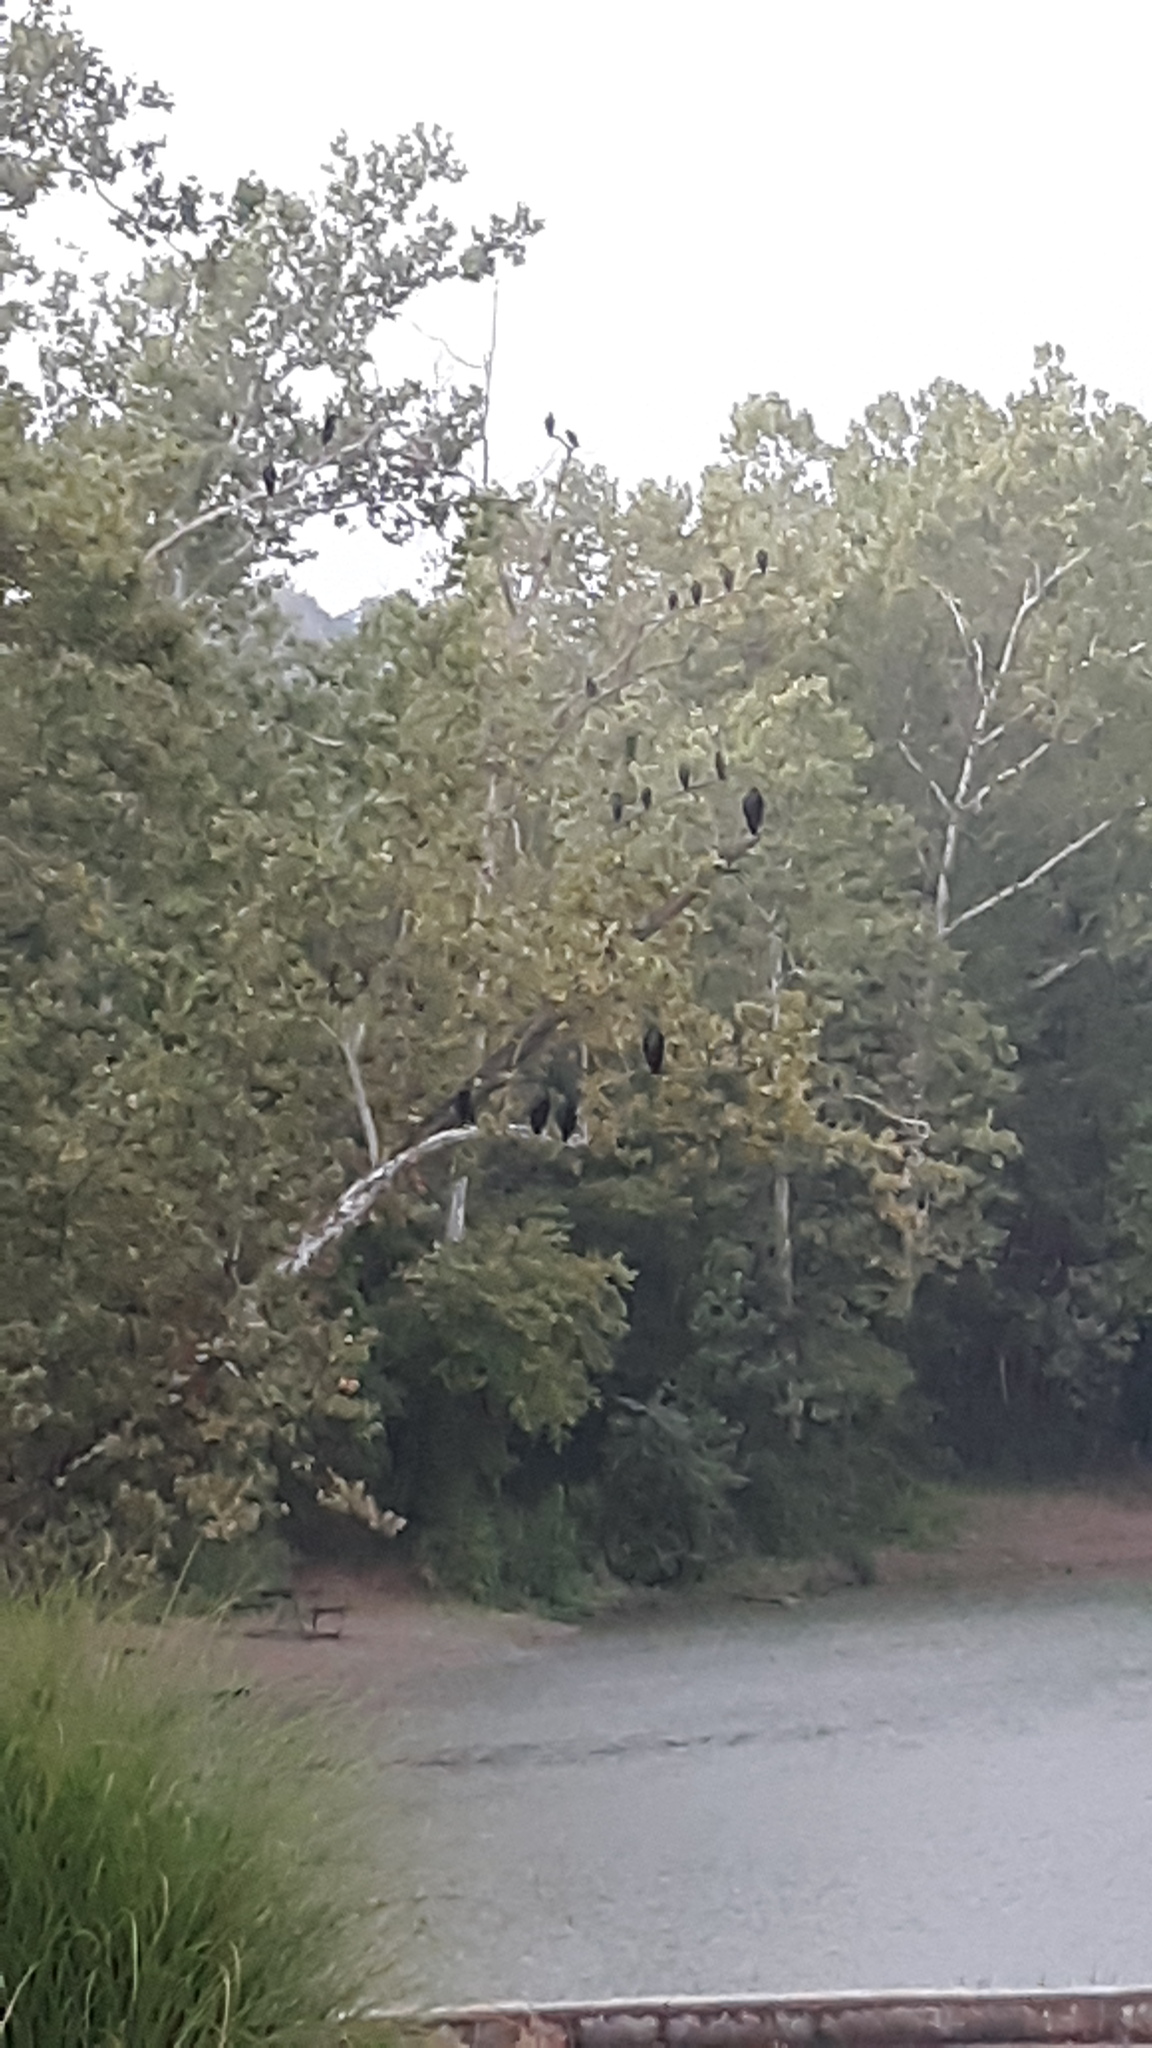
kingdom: Animalia
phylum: Chordata
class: Aves
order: Accipitriformes
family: Cathartidae
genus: Coragyps
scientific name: Coragyps atratus
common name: Black vulture
